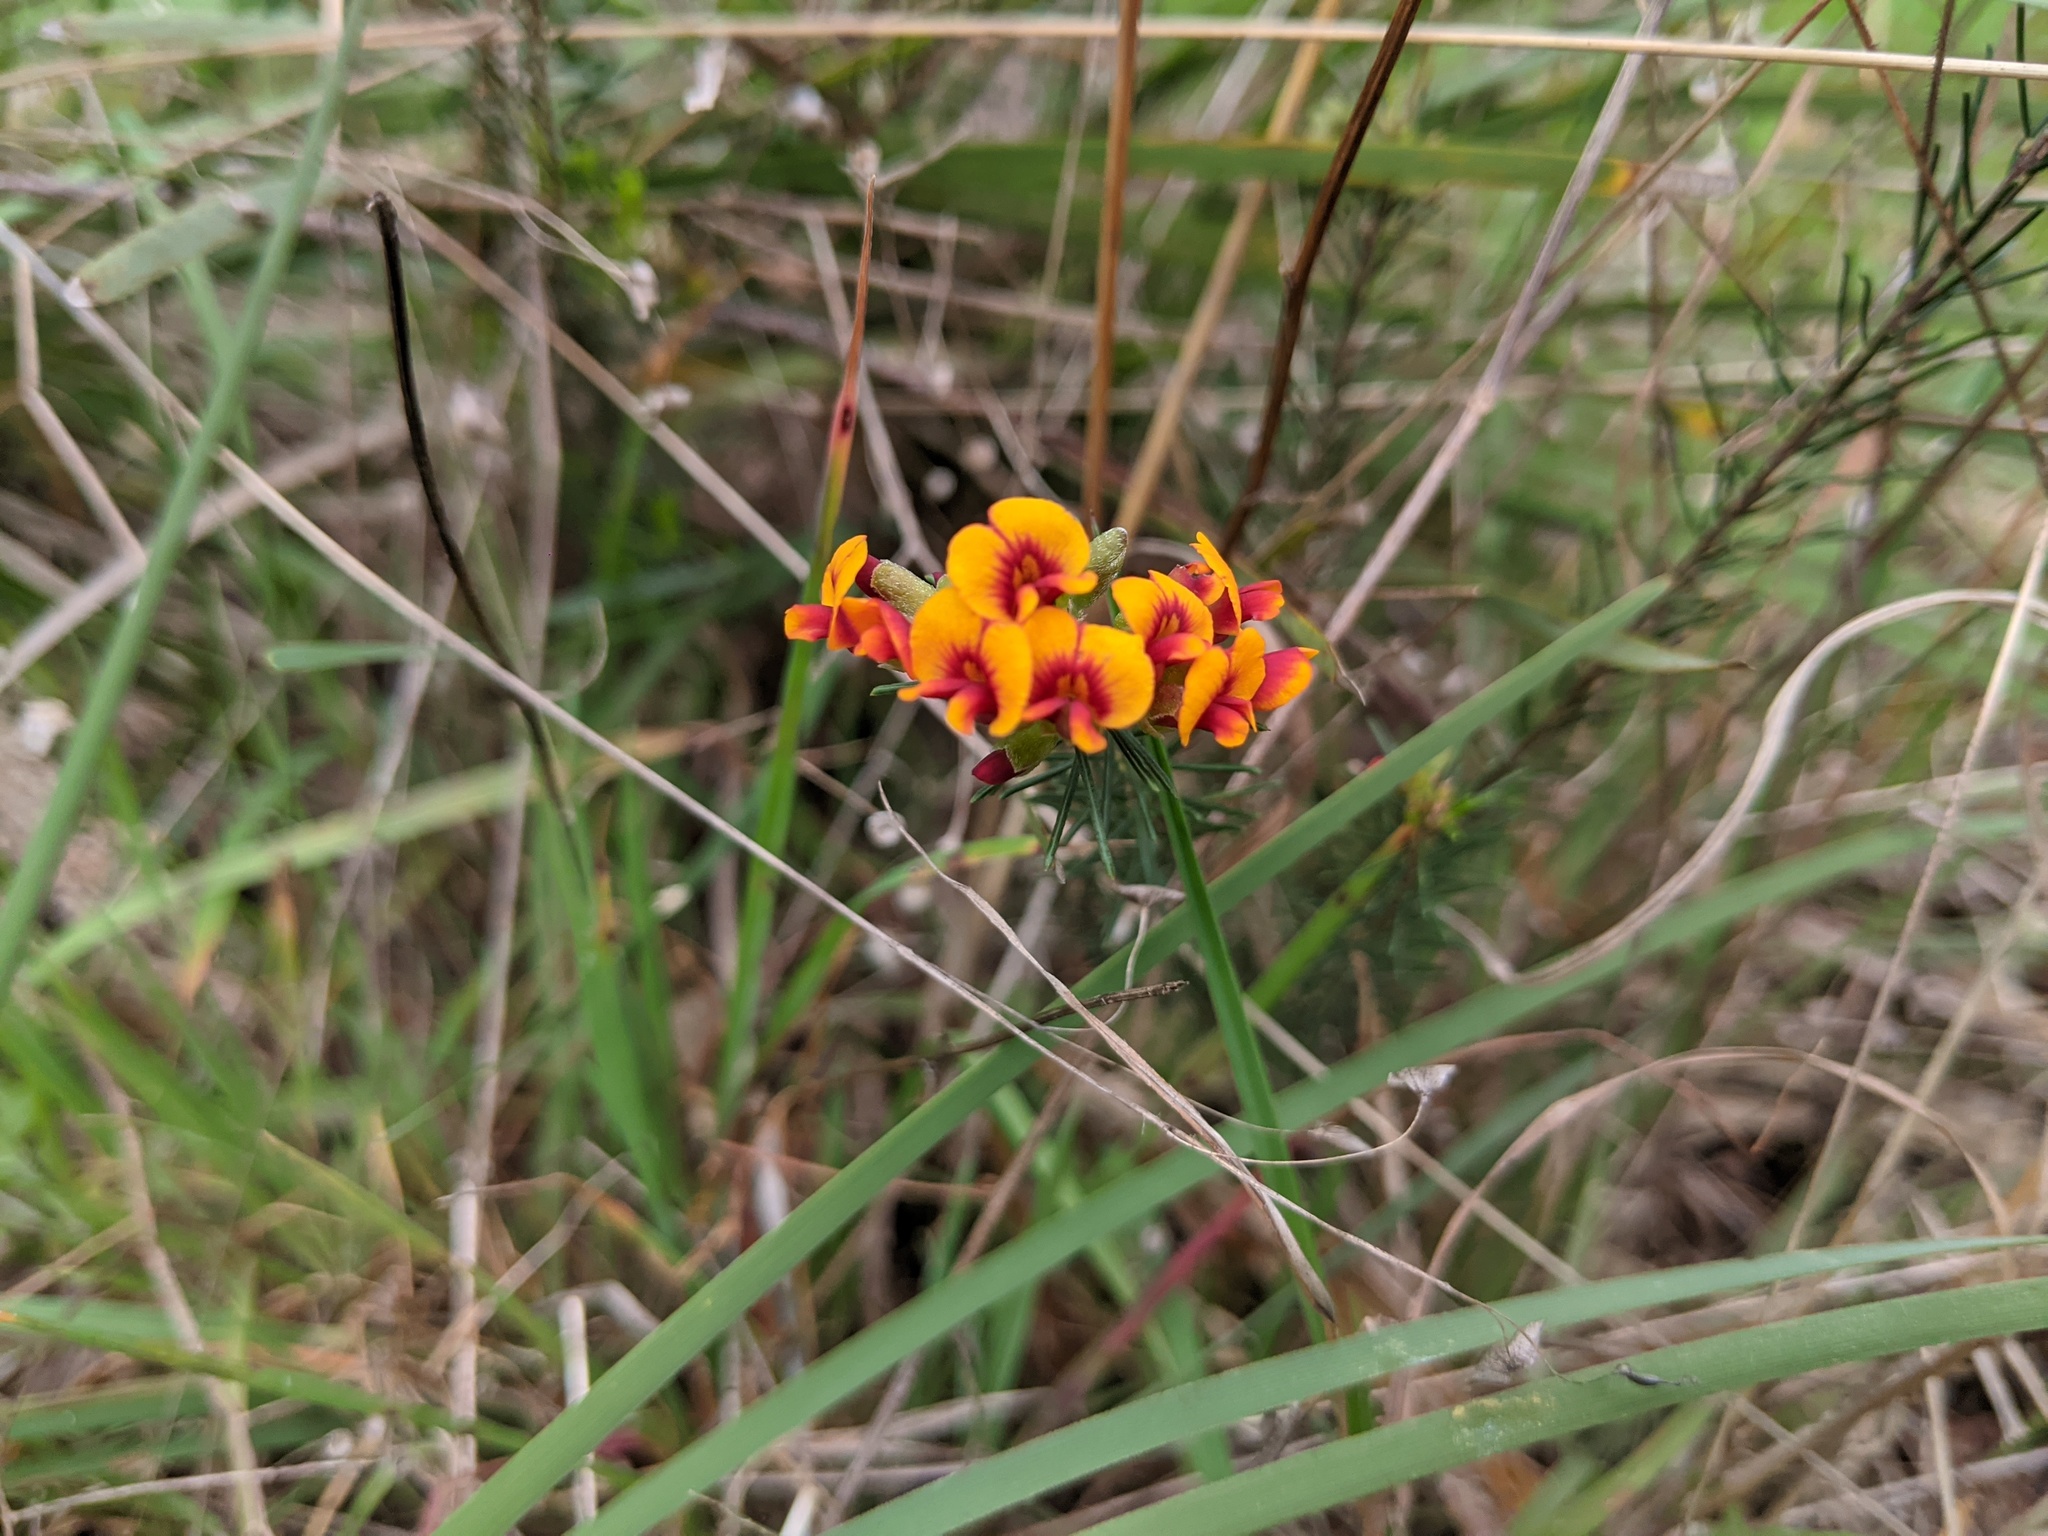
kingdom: Plantae
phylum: Tracheophyta
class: Magnoliopsida
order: Fabales
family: Fabaceae
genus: Dillwynia
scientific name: Dillwynia cinerascens
